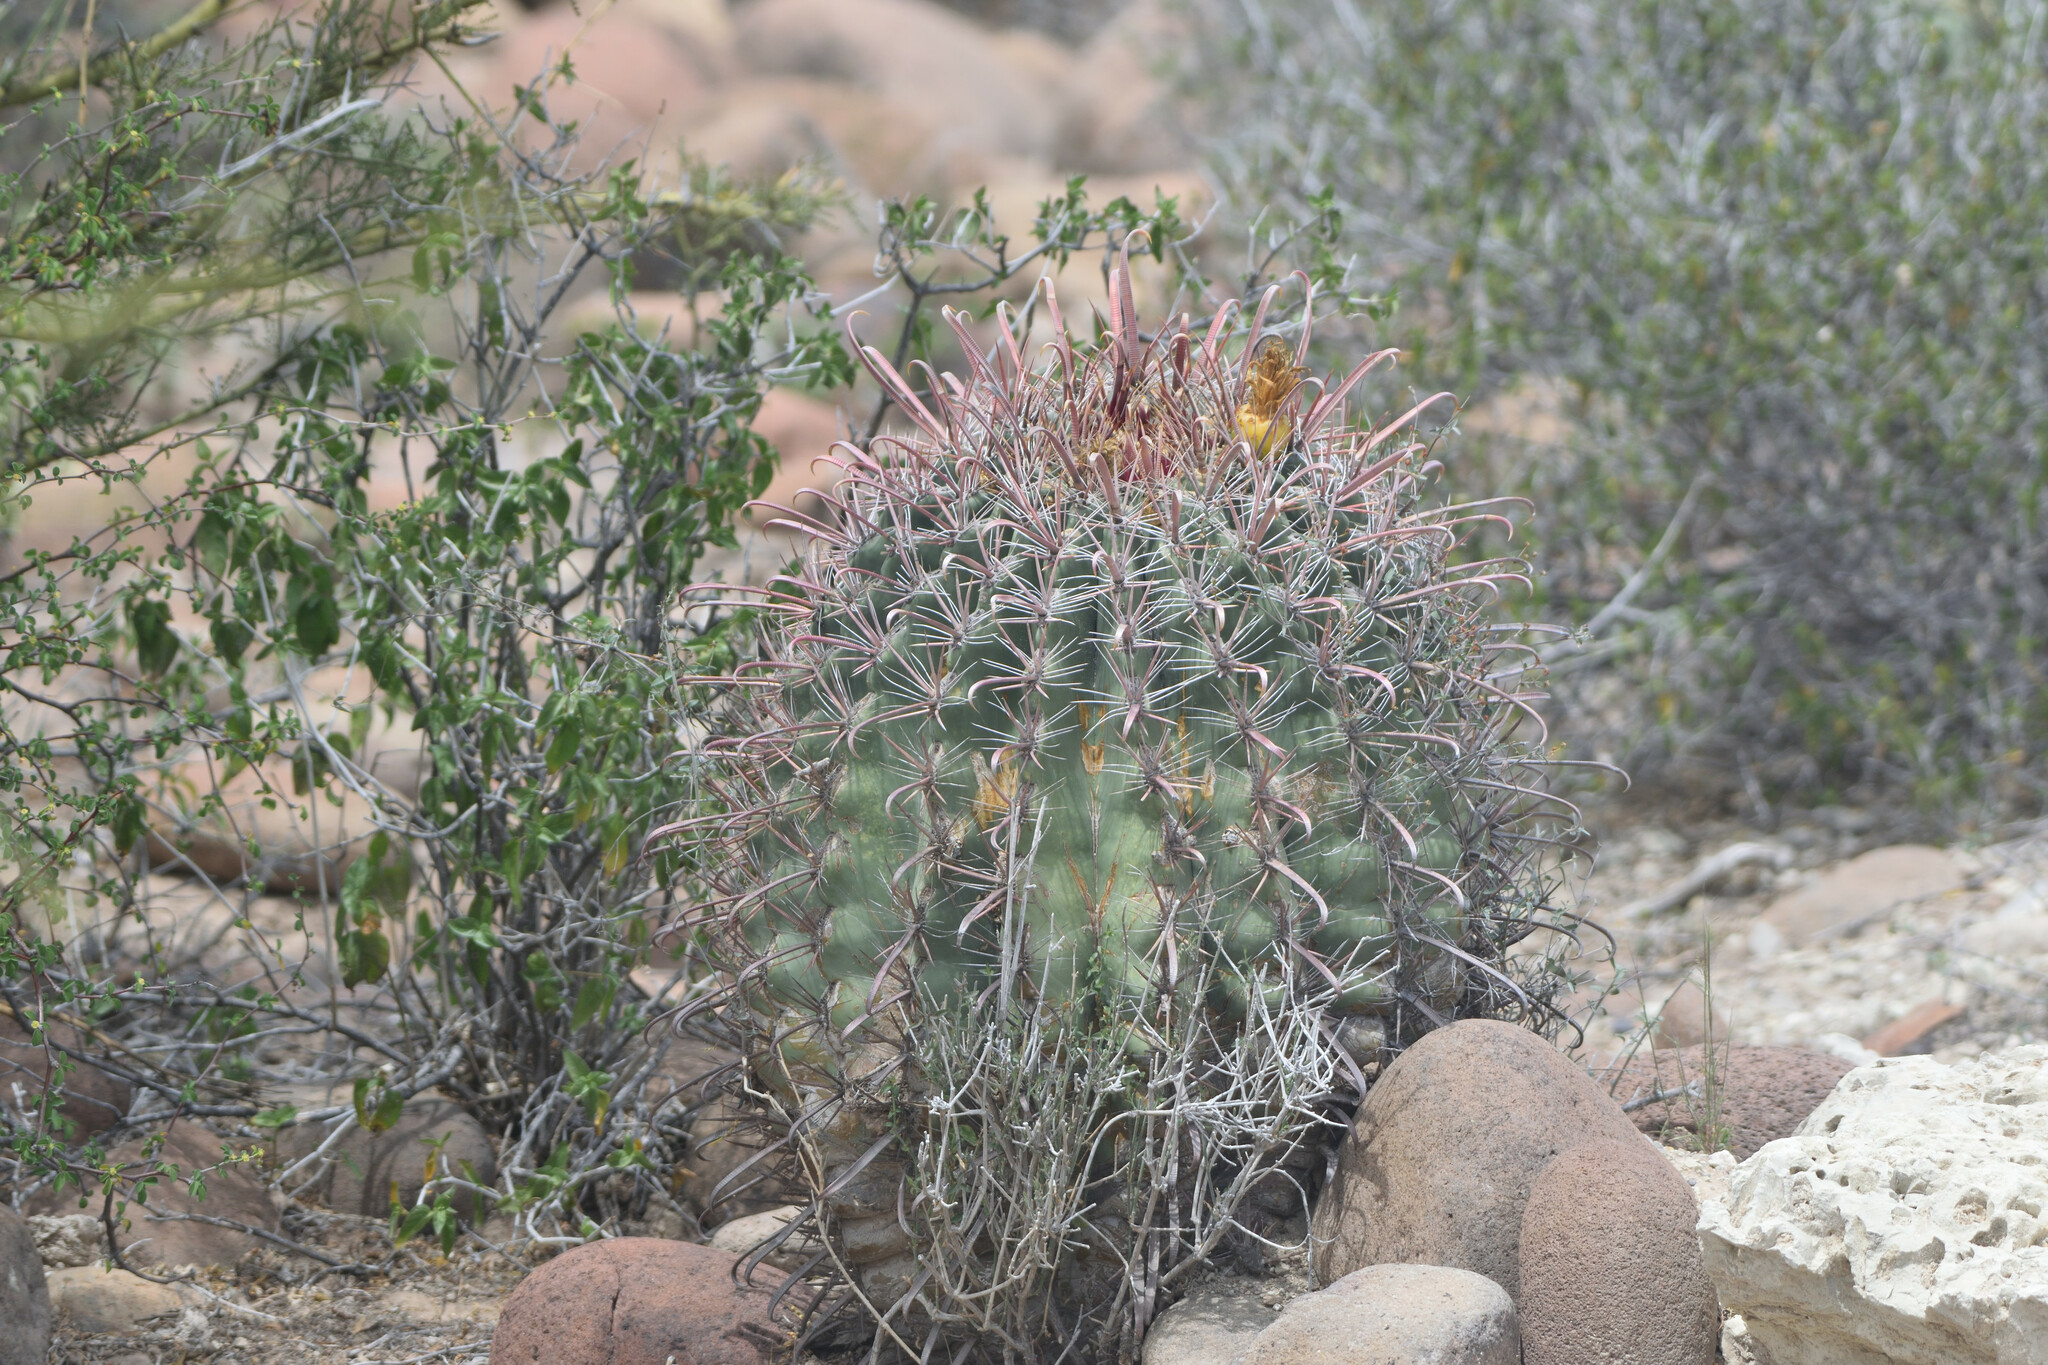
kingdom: Plantae
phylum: Tracheophyta
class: Magnoliopsida
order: Caryophyllales
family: Cactaceae
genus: Ferocactus
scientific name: Ferocactus peninsulae
